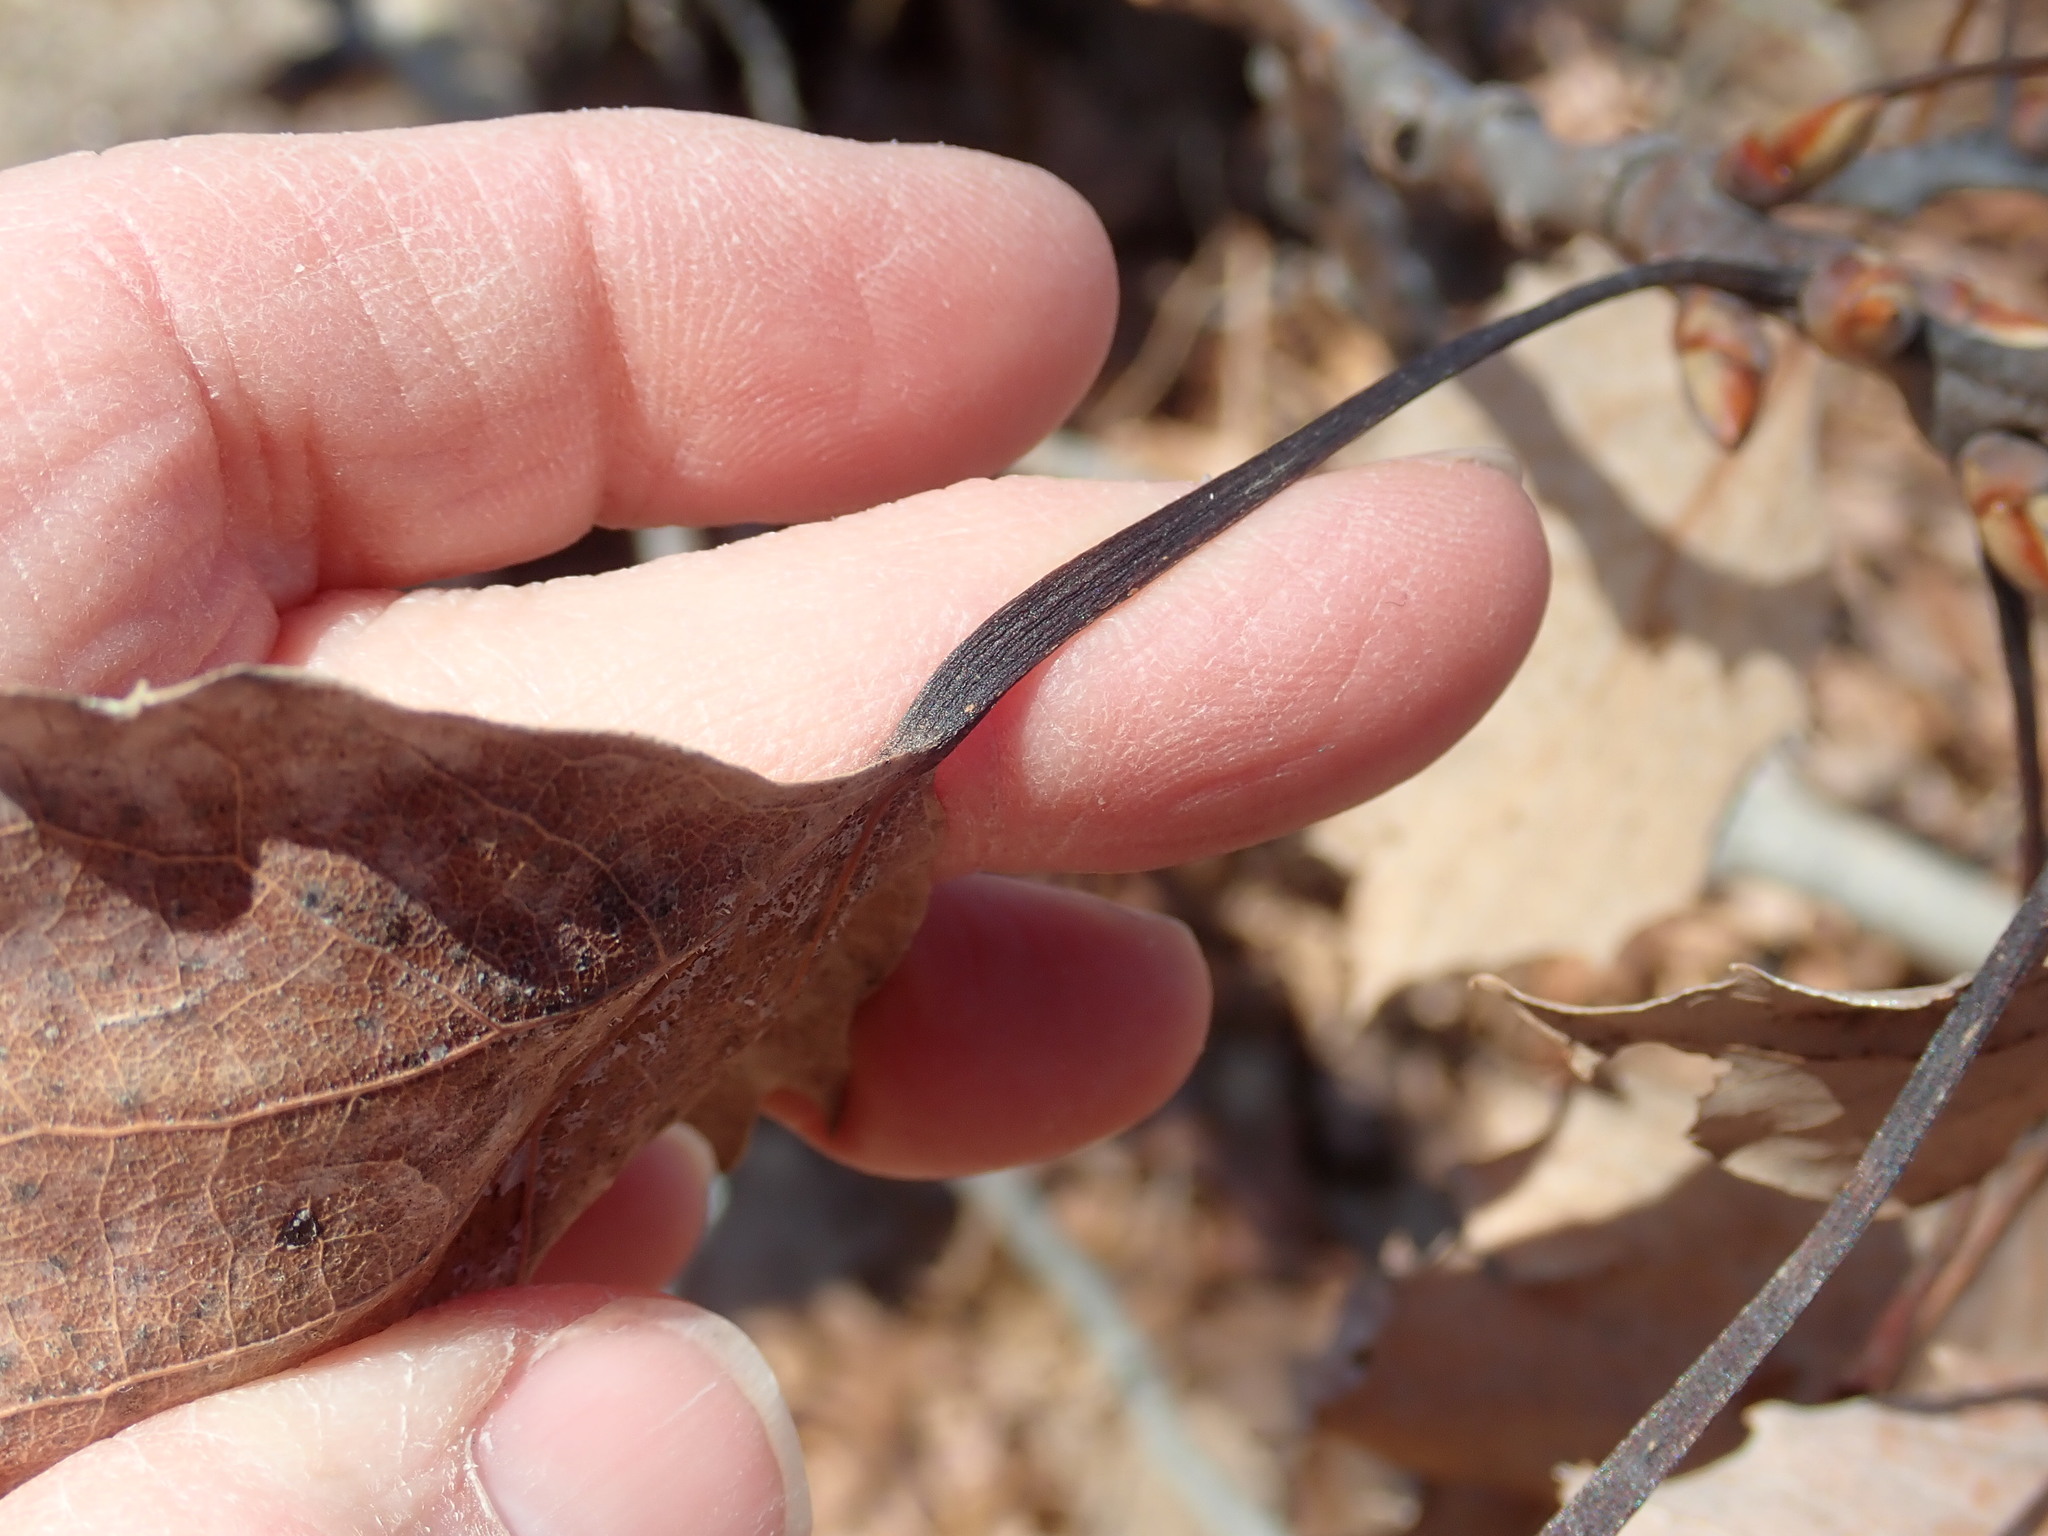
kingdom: Plantae
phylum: Tracheophyta
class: Magnoliopsida
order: Malpighiales
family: Salicaceae
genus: Populus
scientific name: Populus grandidentata
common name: Bigtooth aspen
